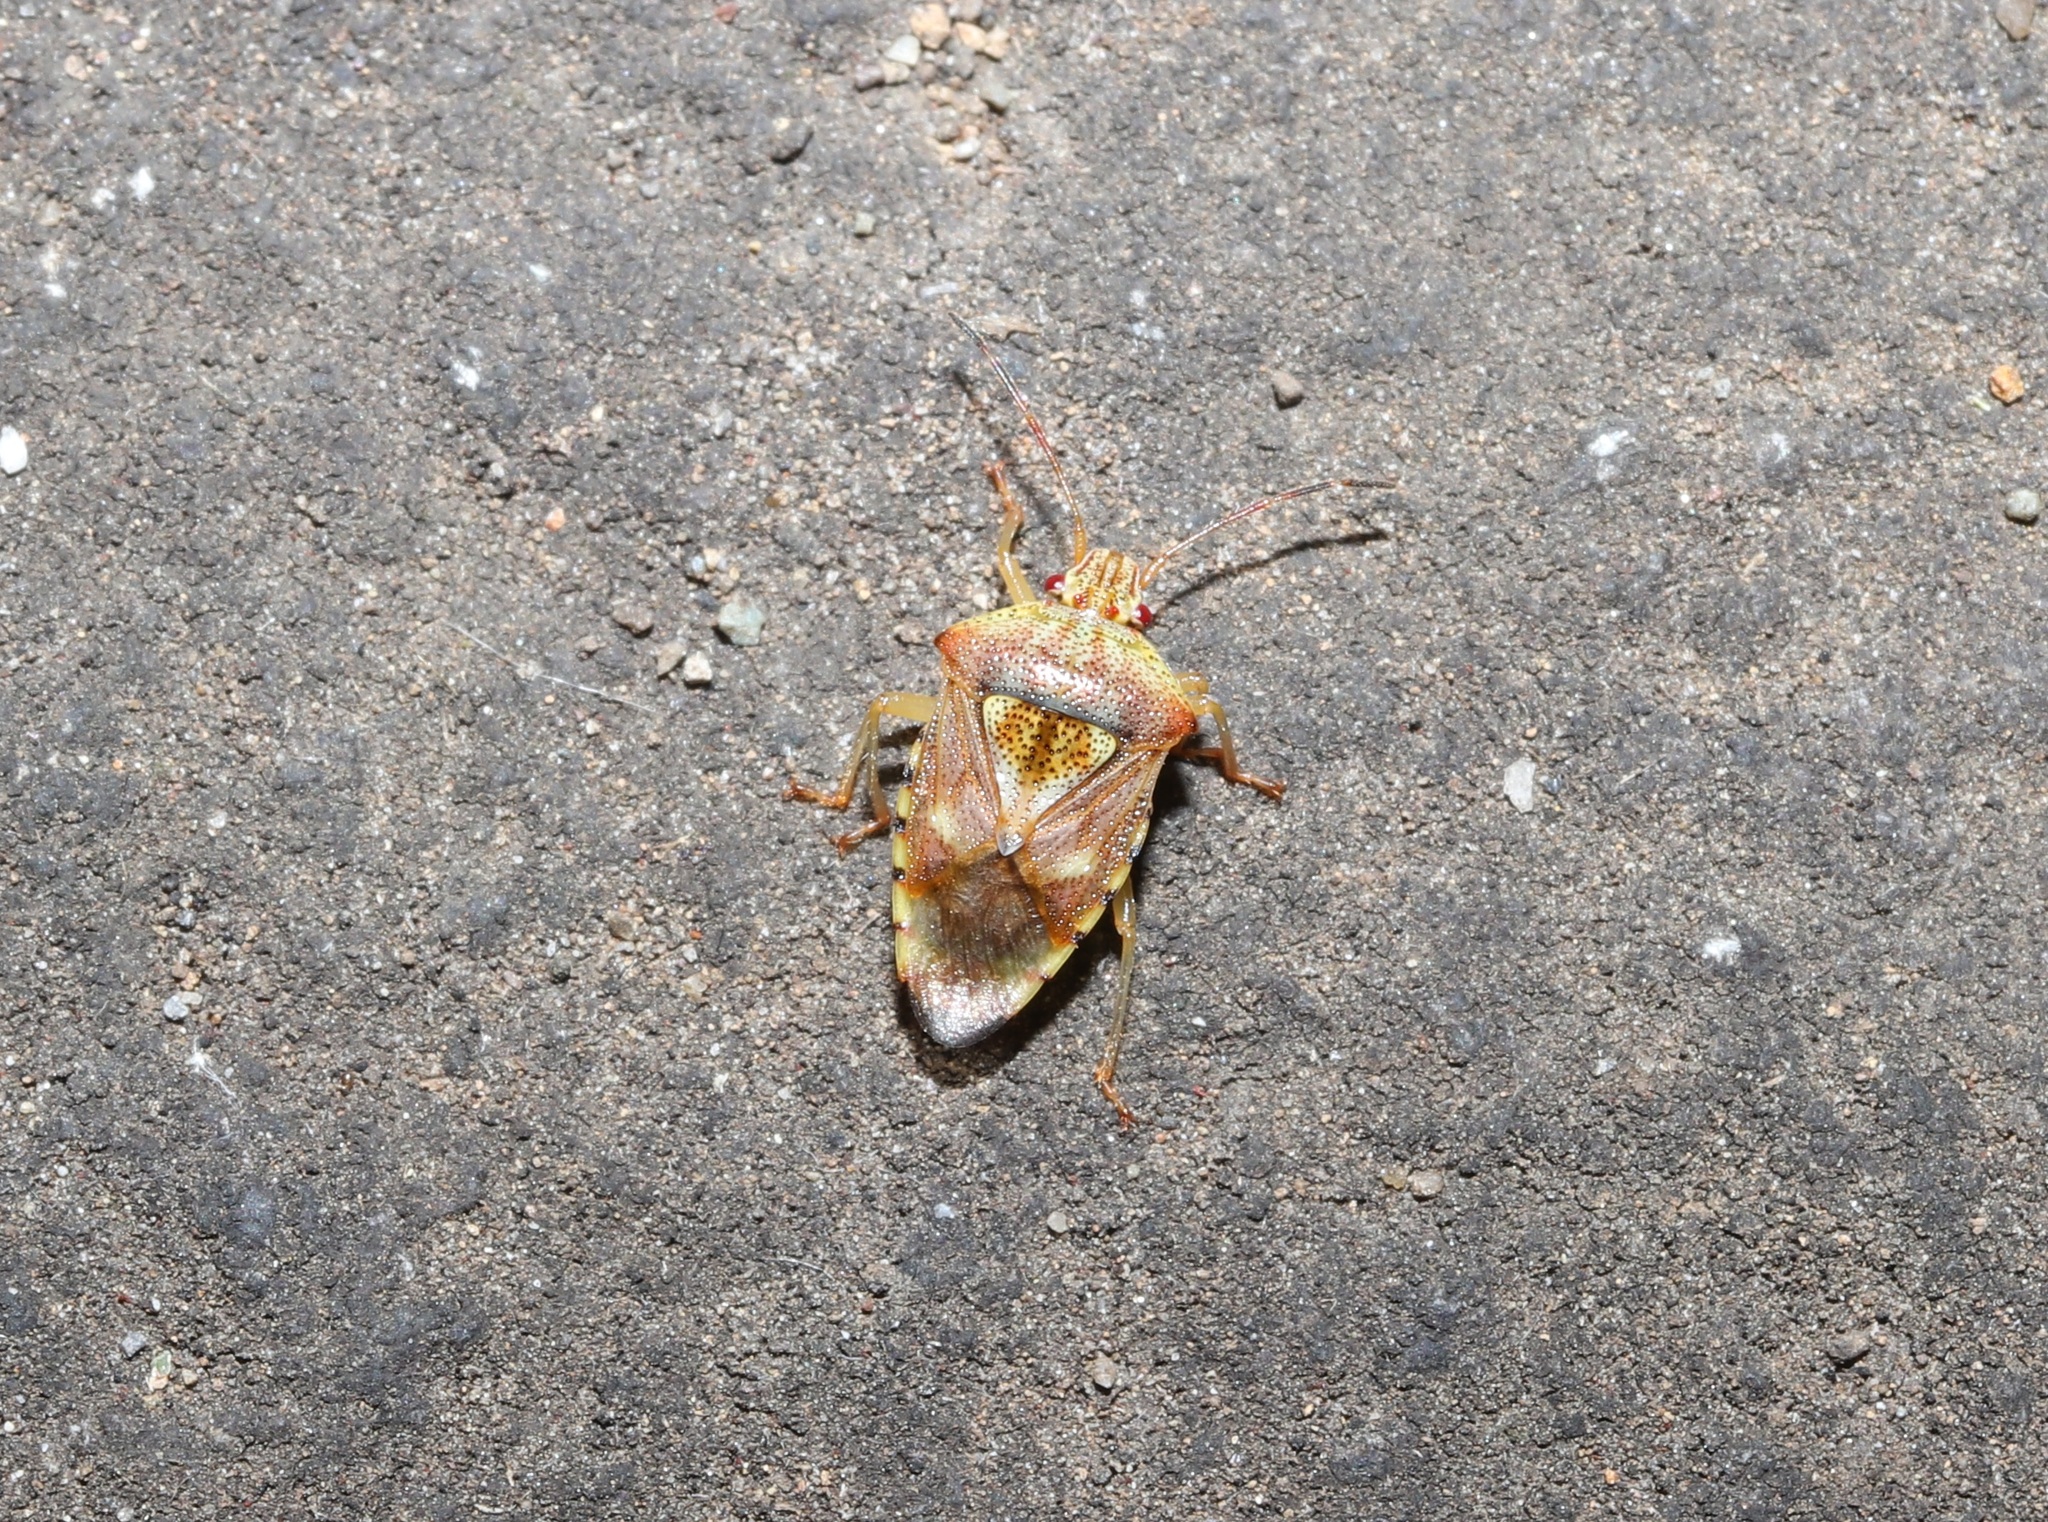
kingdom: Animalia
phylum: Arthropoda
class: Insecta
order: Hemiptera
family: Acanthosomatidae
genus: Elasmucha
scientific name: Elasmucha putoni
